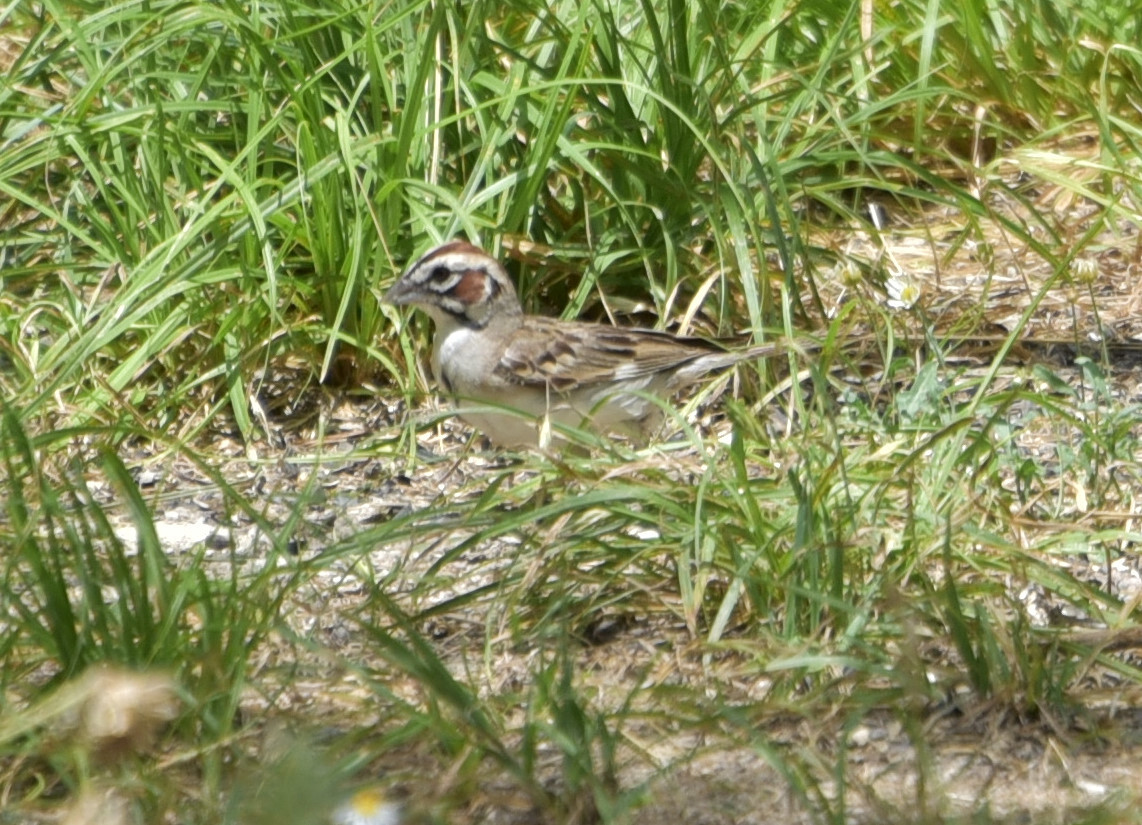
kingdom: Animalia
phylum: Chordata
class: Aves
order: Passeriformes
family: Passerellidae
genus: Chondestes
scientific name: Chondestes grammacus
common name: Lark sparrow
